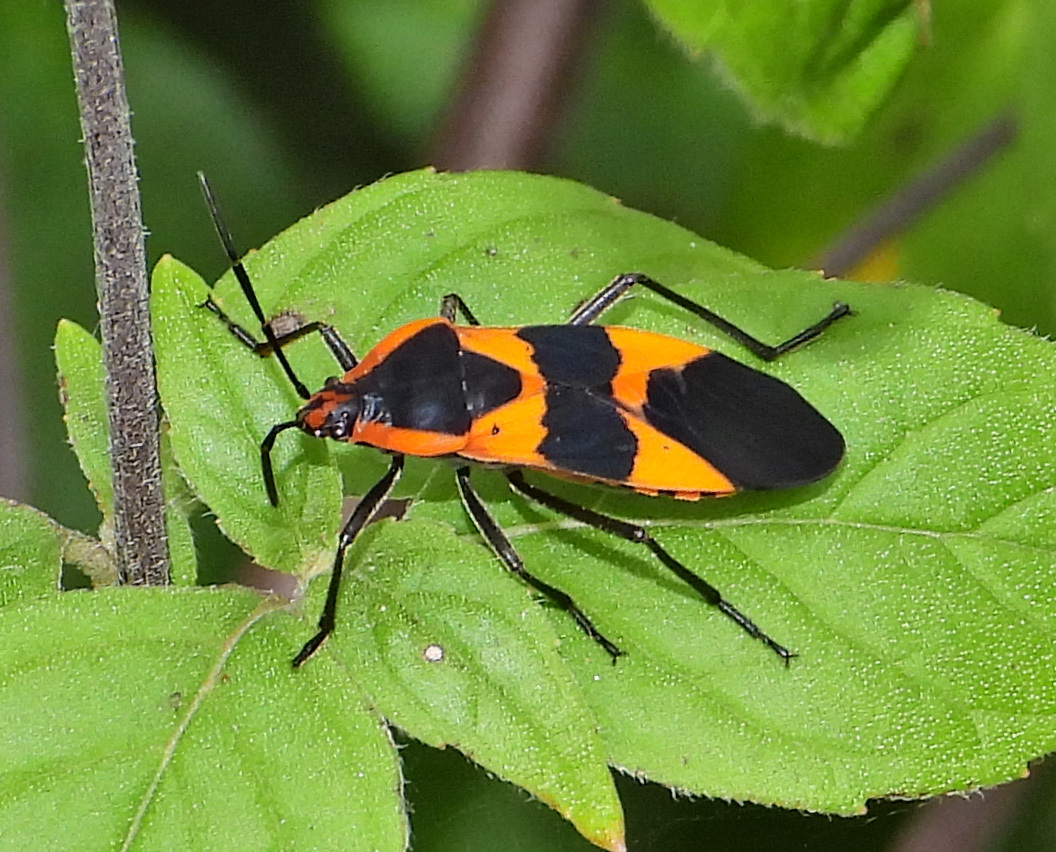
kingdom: Animalia
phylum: Arthropoda
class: Insecta
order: Hemiptera
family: Lygaeidae
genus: Oncopeltus
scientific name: Oncopeltus fasciatus
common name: Large milkweed bug
